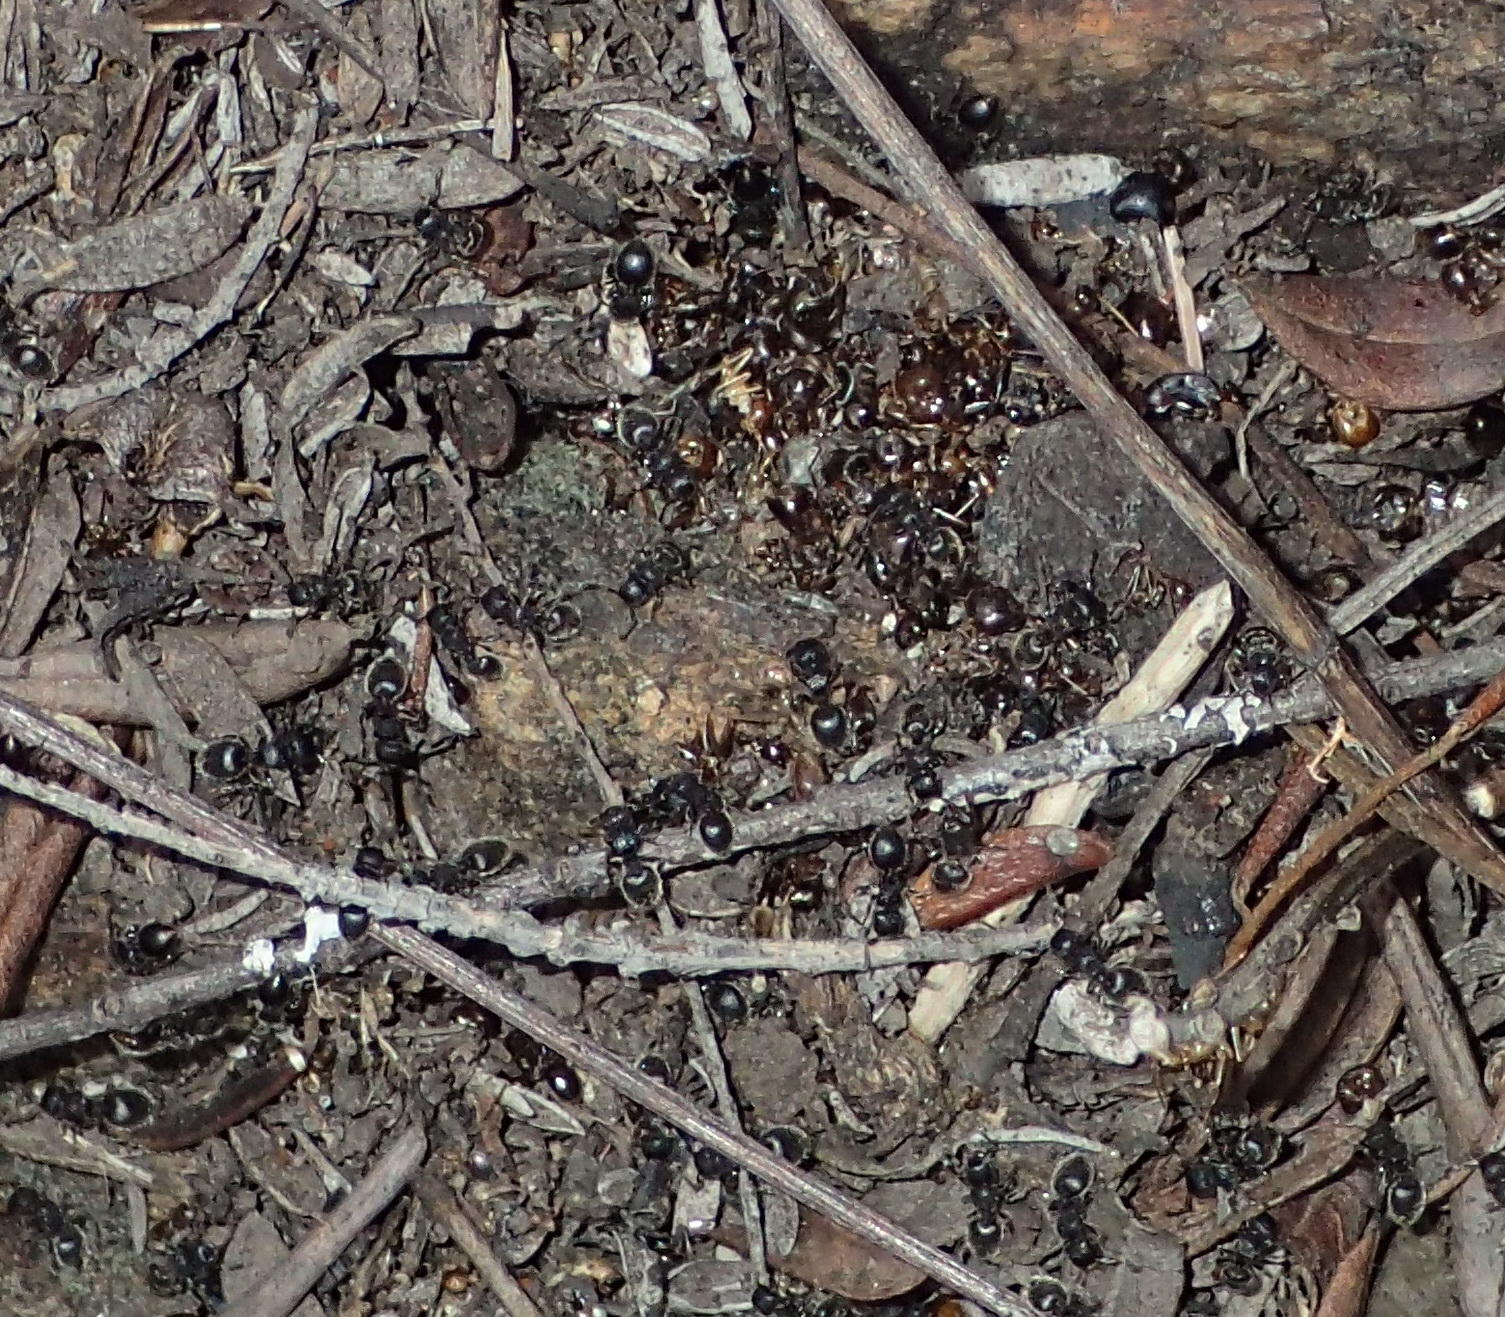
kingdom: Animalia
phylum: Arthropoda
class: Insecta
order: Hymenoptera
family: Formicidae
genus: Meranoplus
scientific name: Meranoplus peringueyi
